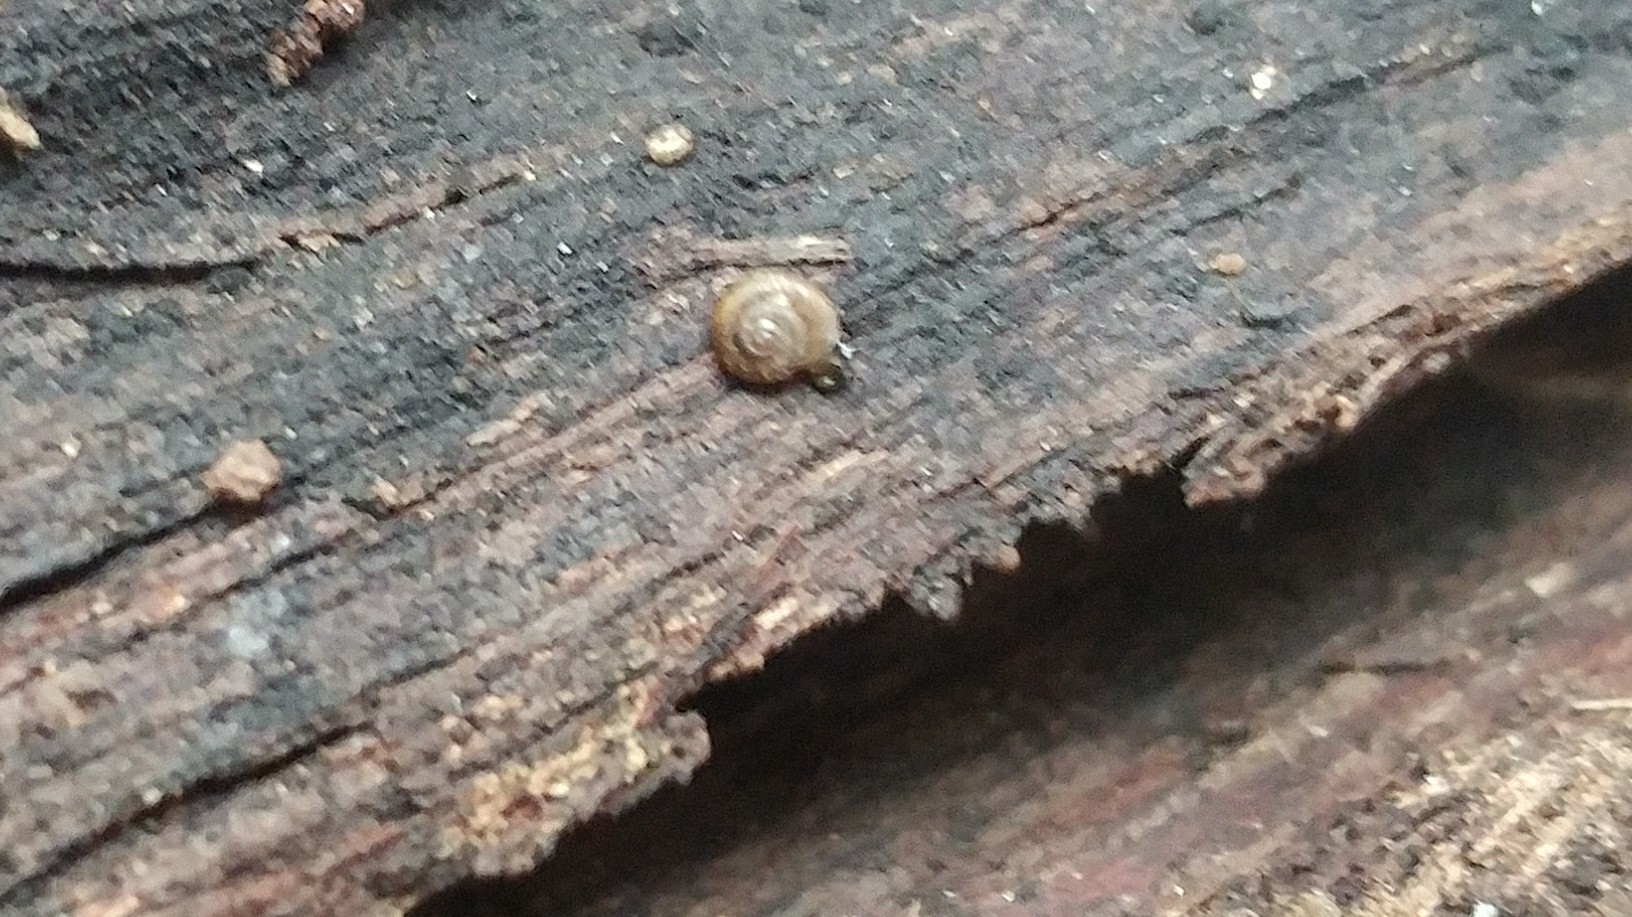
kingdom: Animalia
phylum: Mollusca
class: Gastropoda
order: Stylommatophora
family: Punctidae
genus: Paralaoma
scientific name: Paralaoma servilis
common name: Pinhead spot
